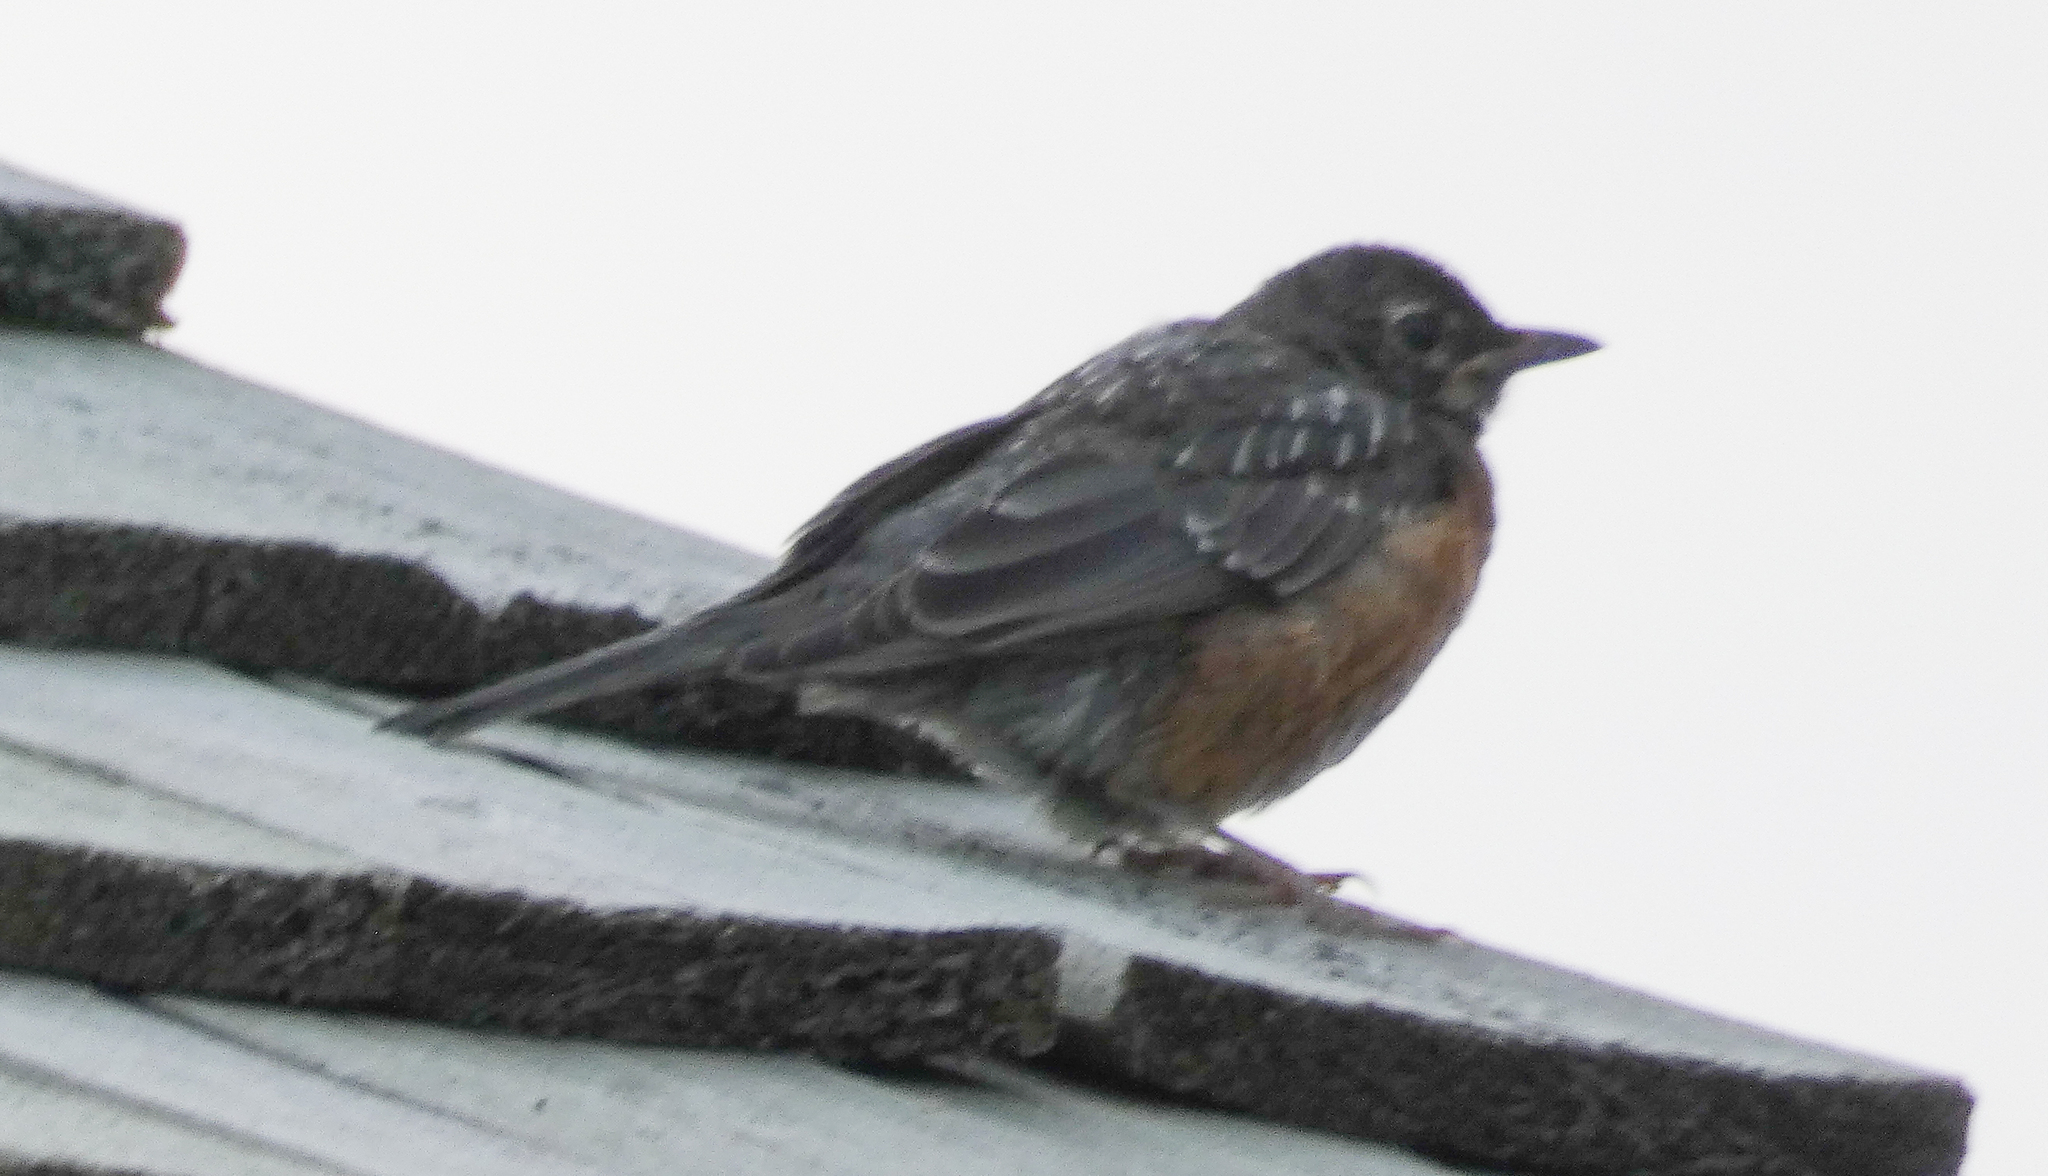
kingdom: Animalia
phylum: Chordata
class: Aves
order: Passeriformes
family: Turdidae
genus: Turdus
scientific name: Turdus migratorius
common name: American robin
